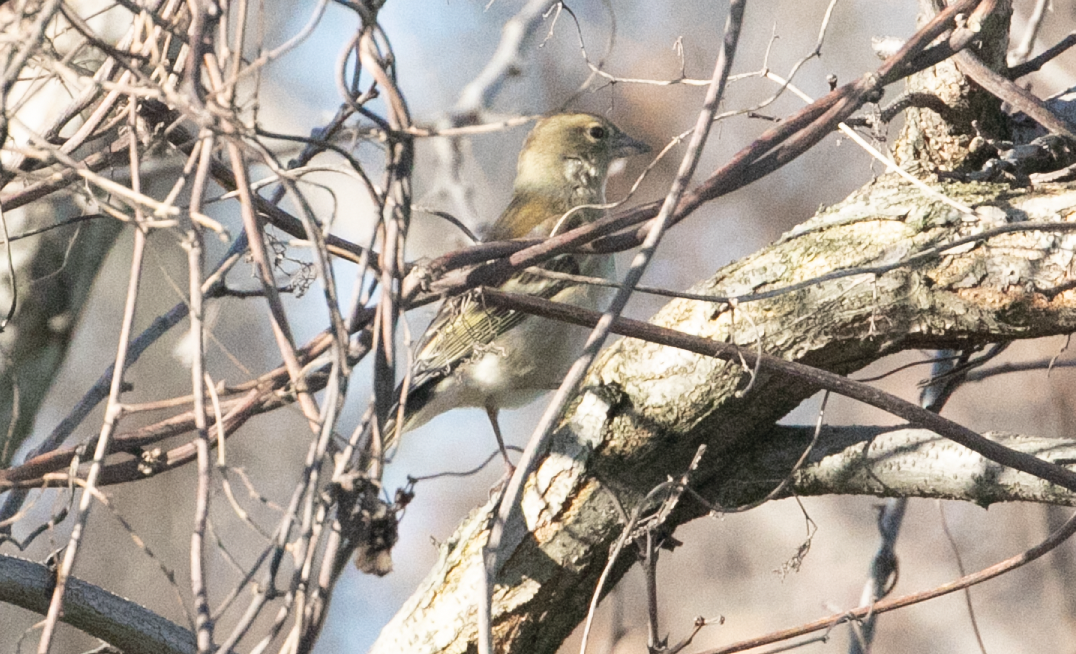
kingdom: Animalia
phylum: Chordata
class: Aves
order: Passeriformes
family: Fringillidae
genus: Fringilla
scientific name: Fringilla coelebs
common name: Common chaffinch
